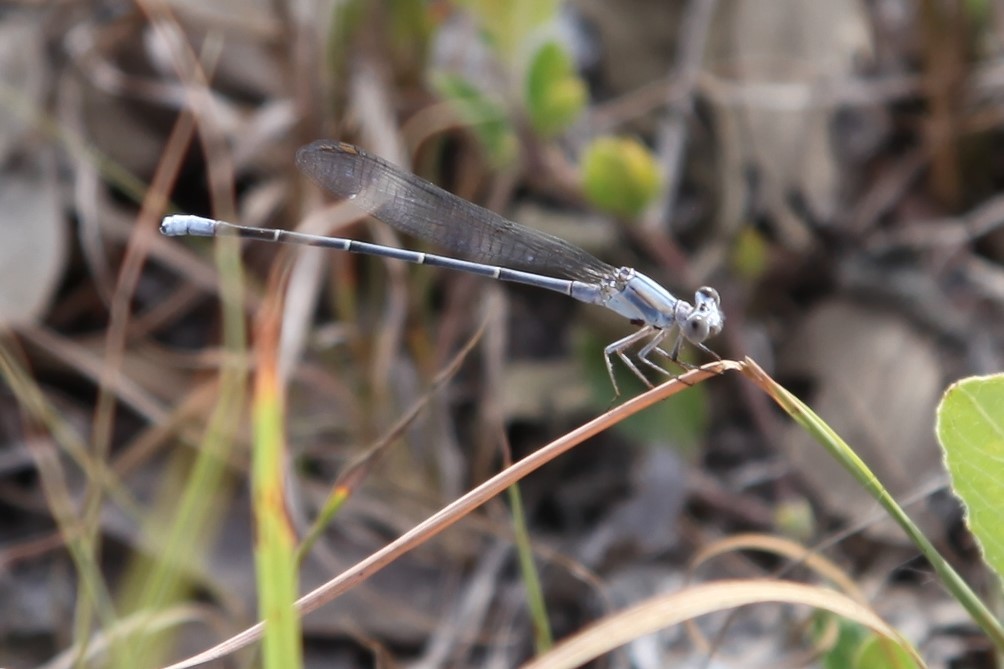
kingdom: Animalia
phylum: Arthropoda
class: Insecta
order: Odonata
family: Coenagrionidae
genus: Argia
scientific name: Argia moesta
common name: Powdered dancer
